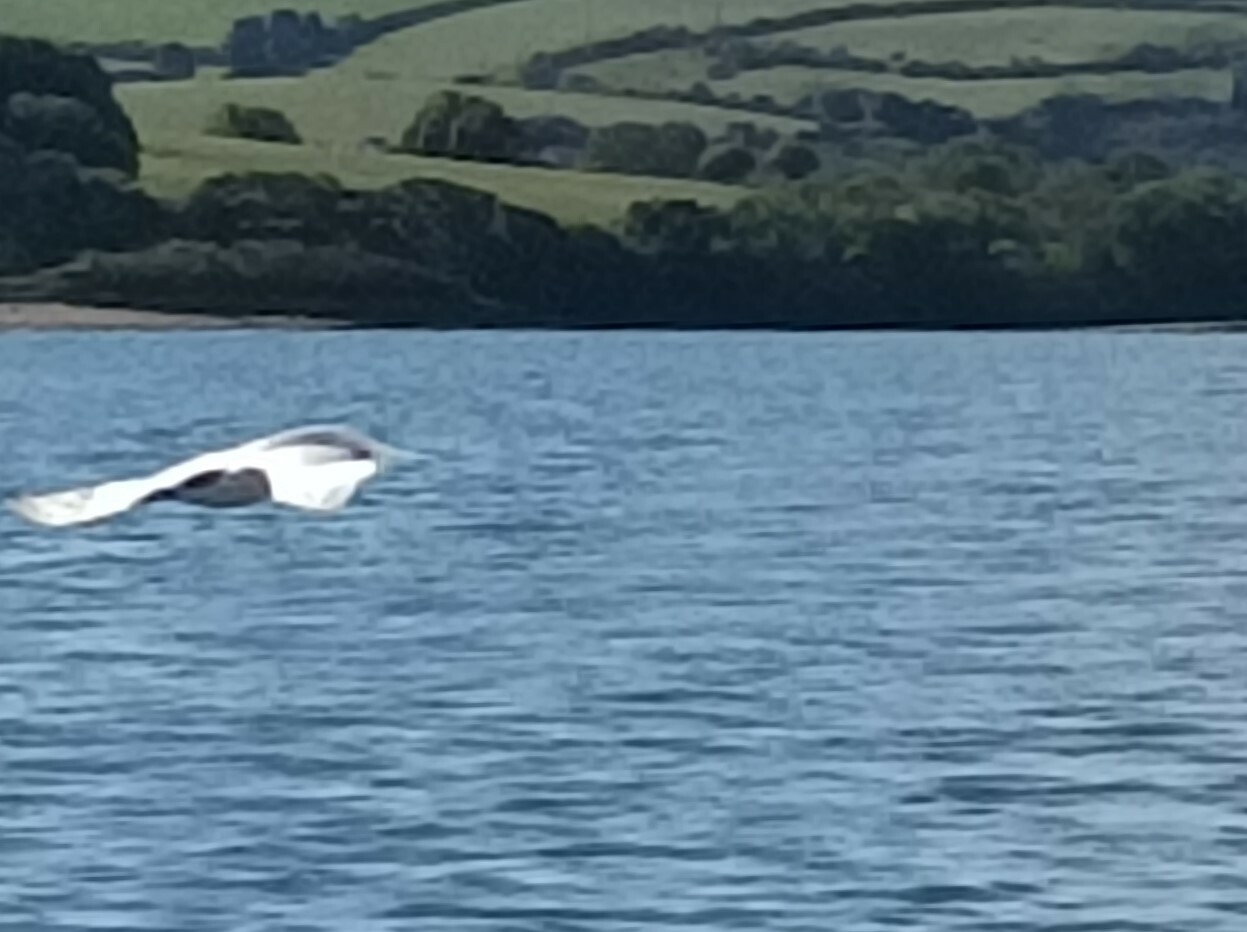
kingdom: Animalia
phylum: Chordata
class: Aves
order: Charadriiformes
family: Laridae
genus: Thalasseus
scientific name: Thalasseus sandvicensis
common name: Sandwich tern
